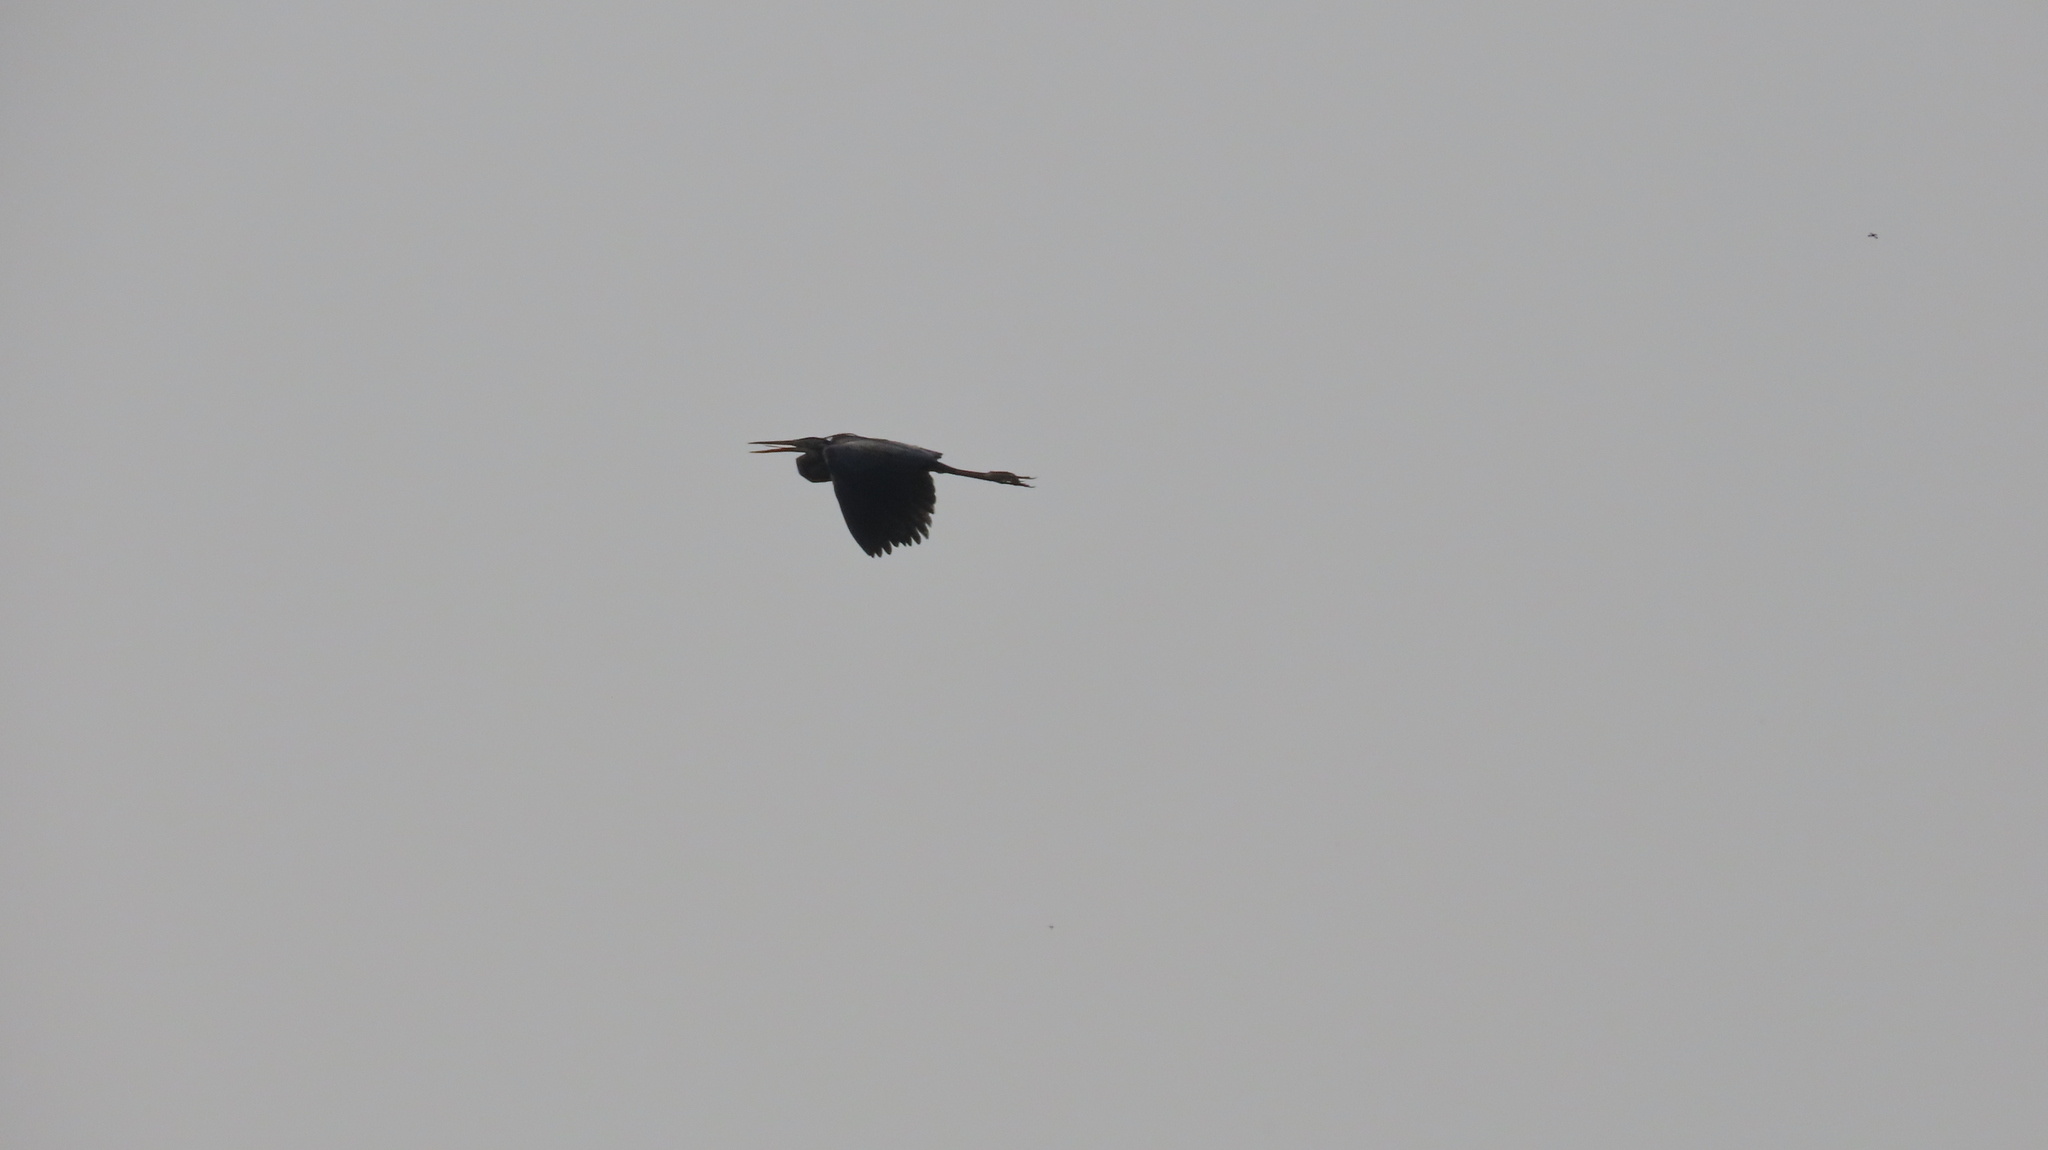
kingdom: Animalia
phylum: Chordata
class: Aves
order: Pelecaniformes
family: Ardeidae
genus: Ardea
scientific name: Ardea purpurea
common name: Purple heron
